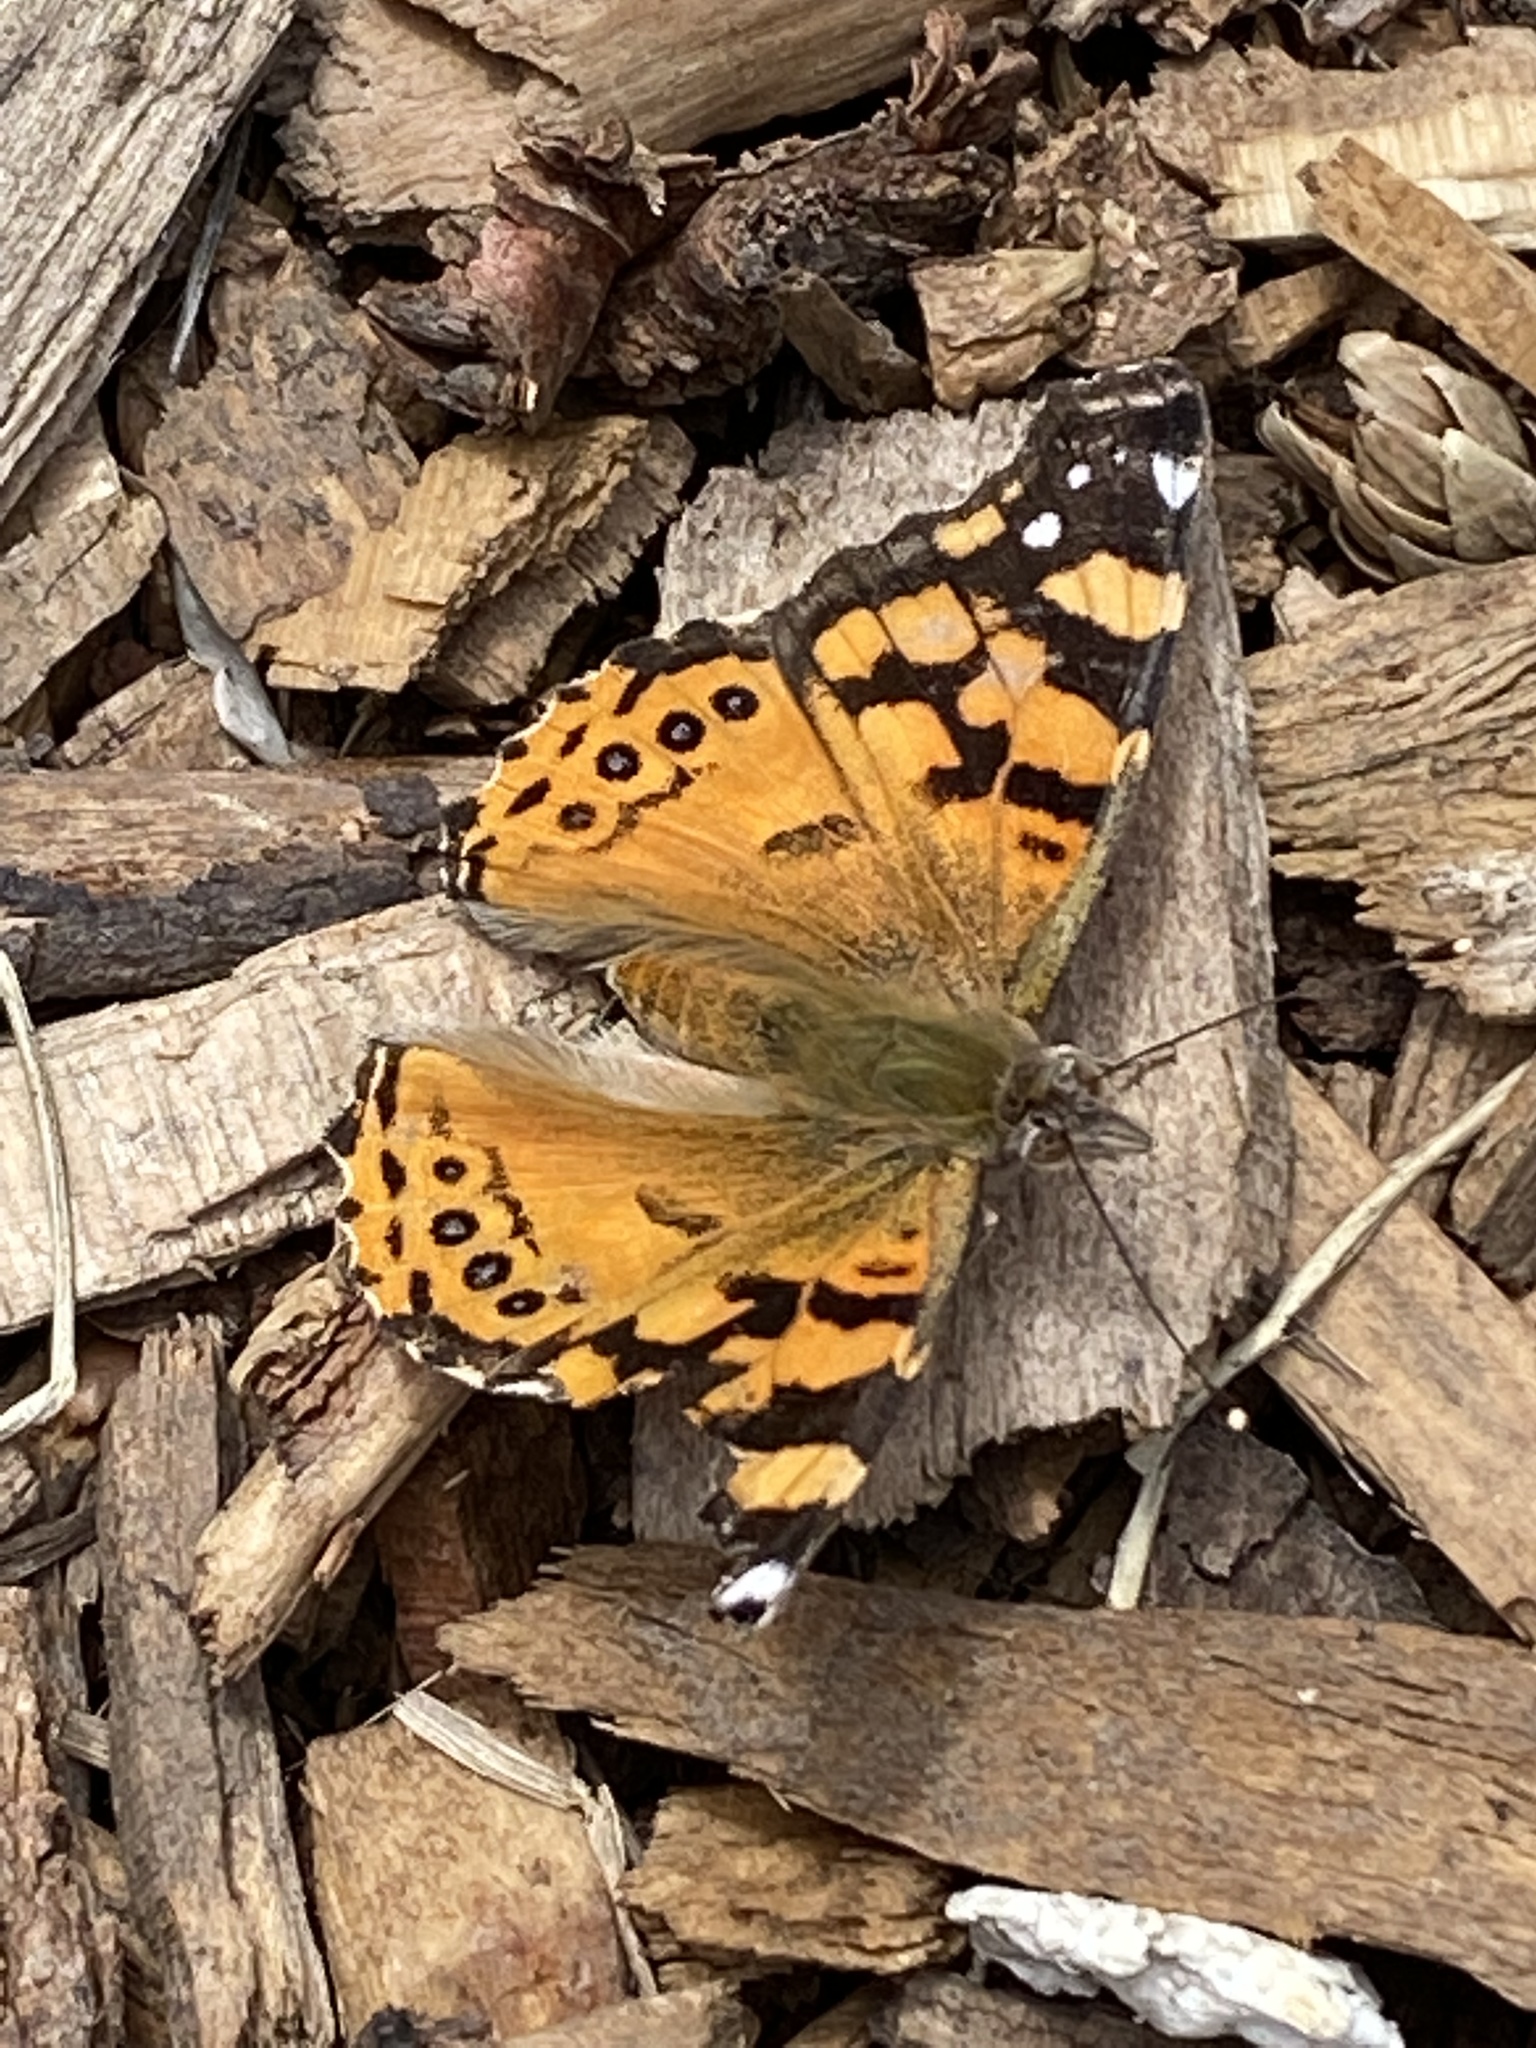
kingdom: Animalia
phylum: Arthropoda
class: Insecta
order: Lepidoptera
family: Nymphalidae
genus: Vanessa
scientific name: Vanessa annabella
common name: West coast lady
